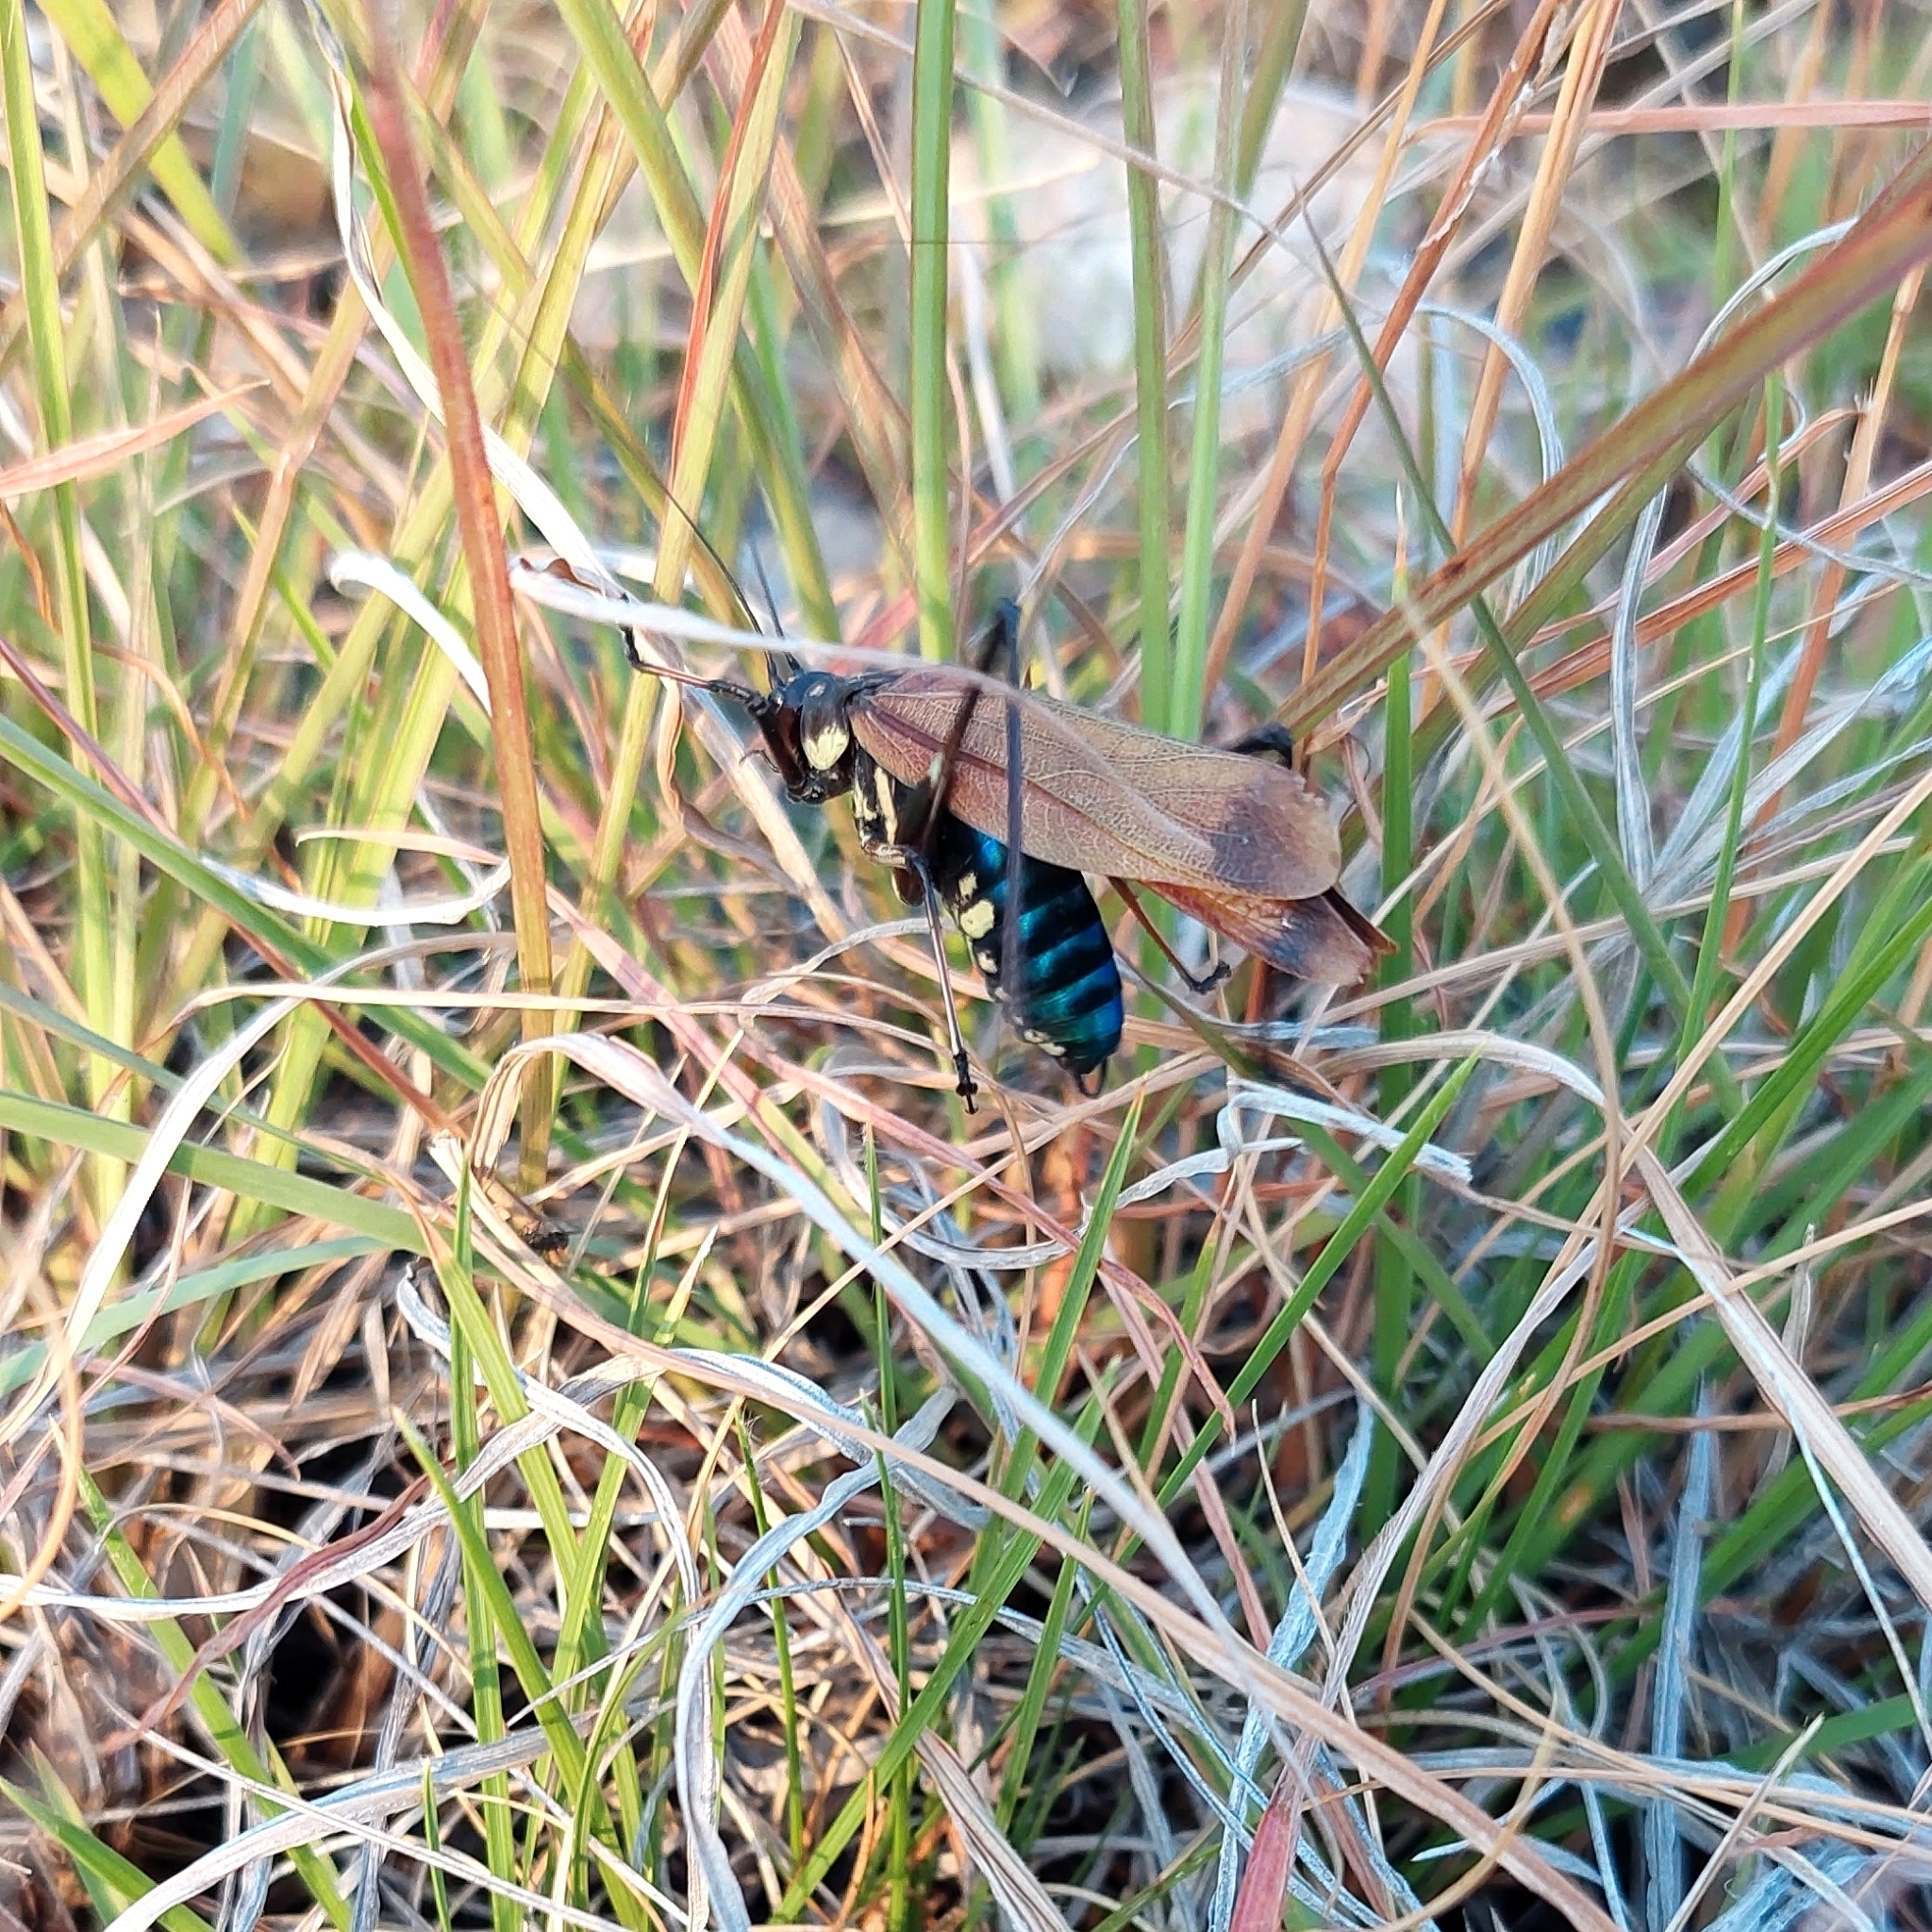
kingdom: Animalia
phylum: Arthropoda
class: Insecta
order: Orthoptera
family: Tettigoniidae
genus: Scaphura
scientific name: Scaphura elegans
